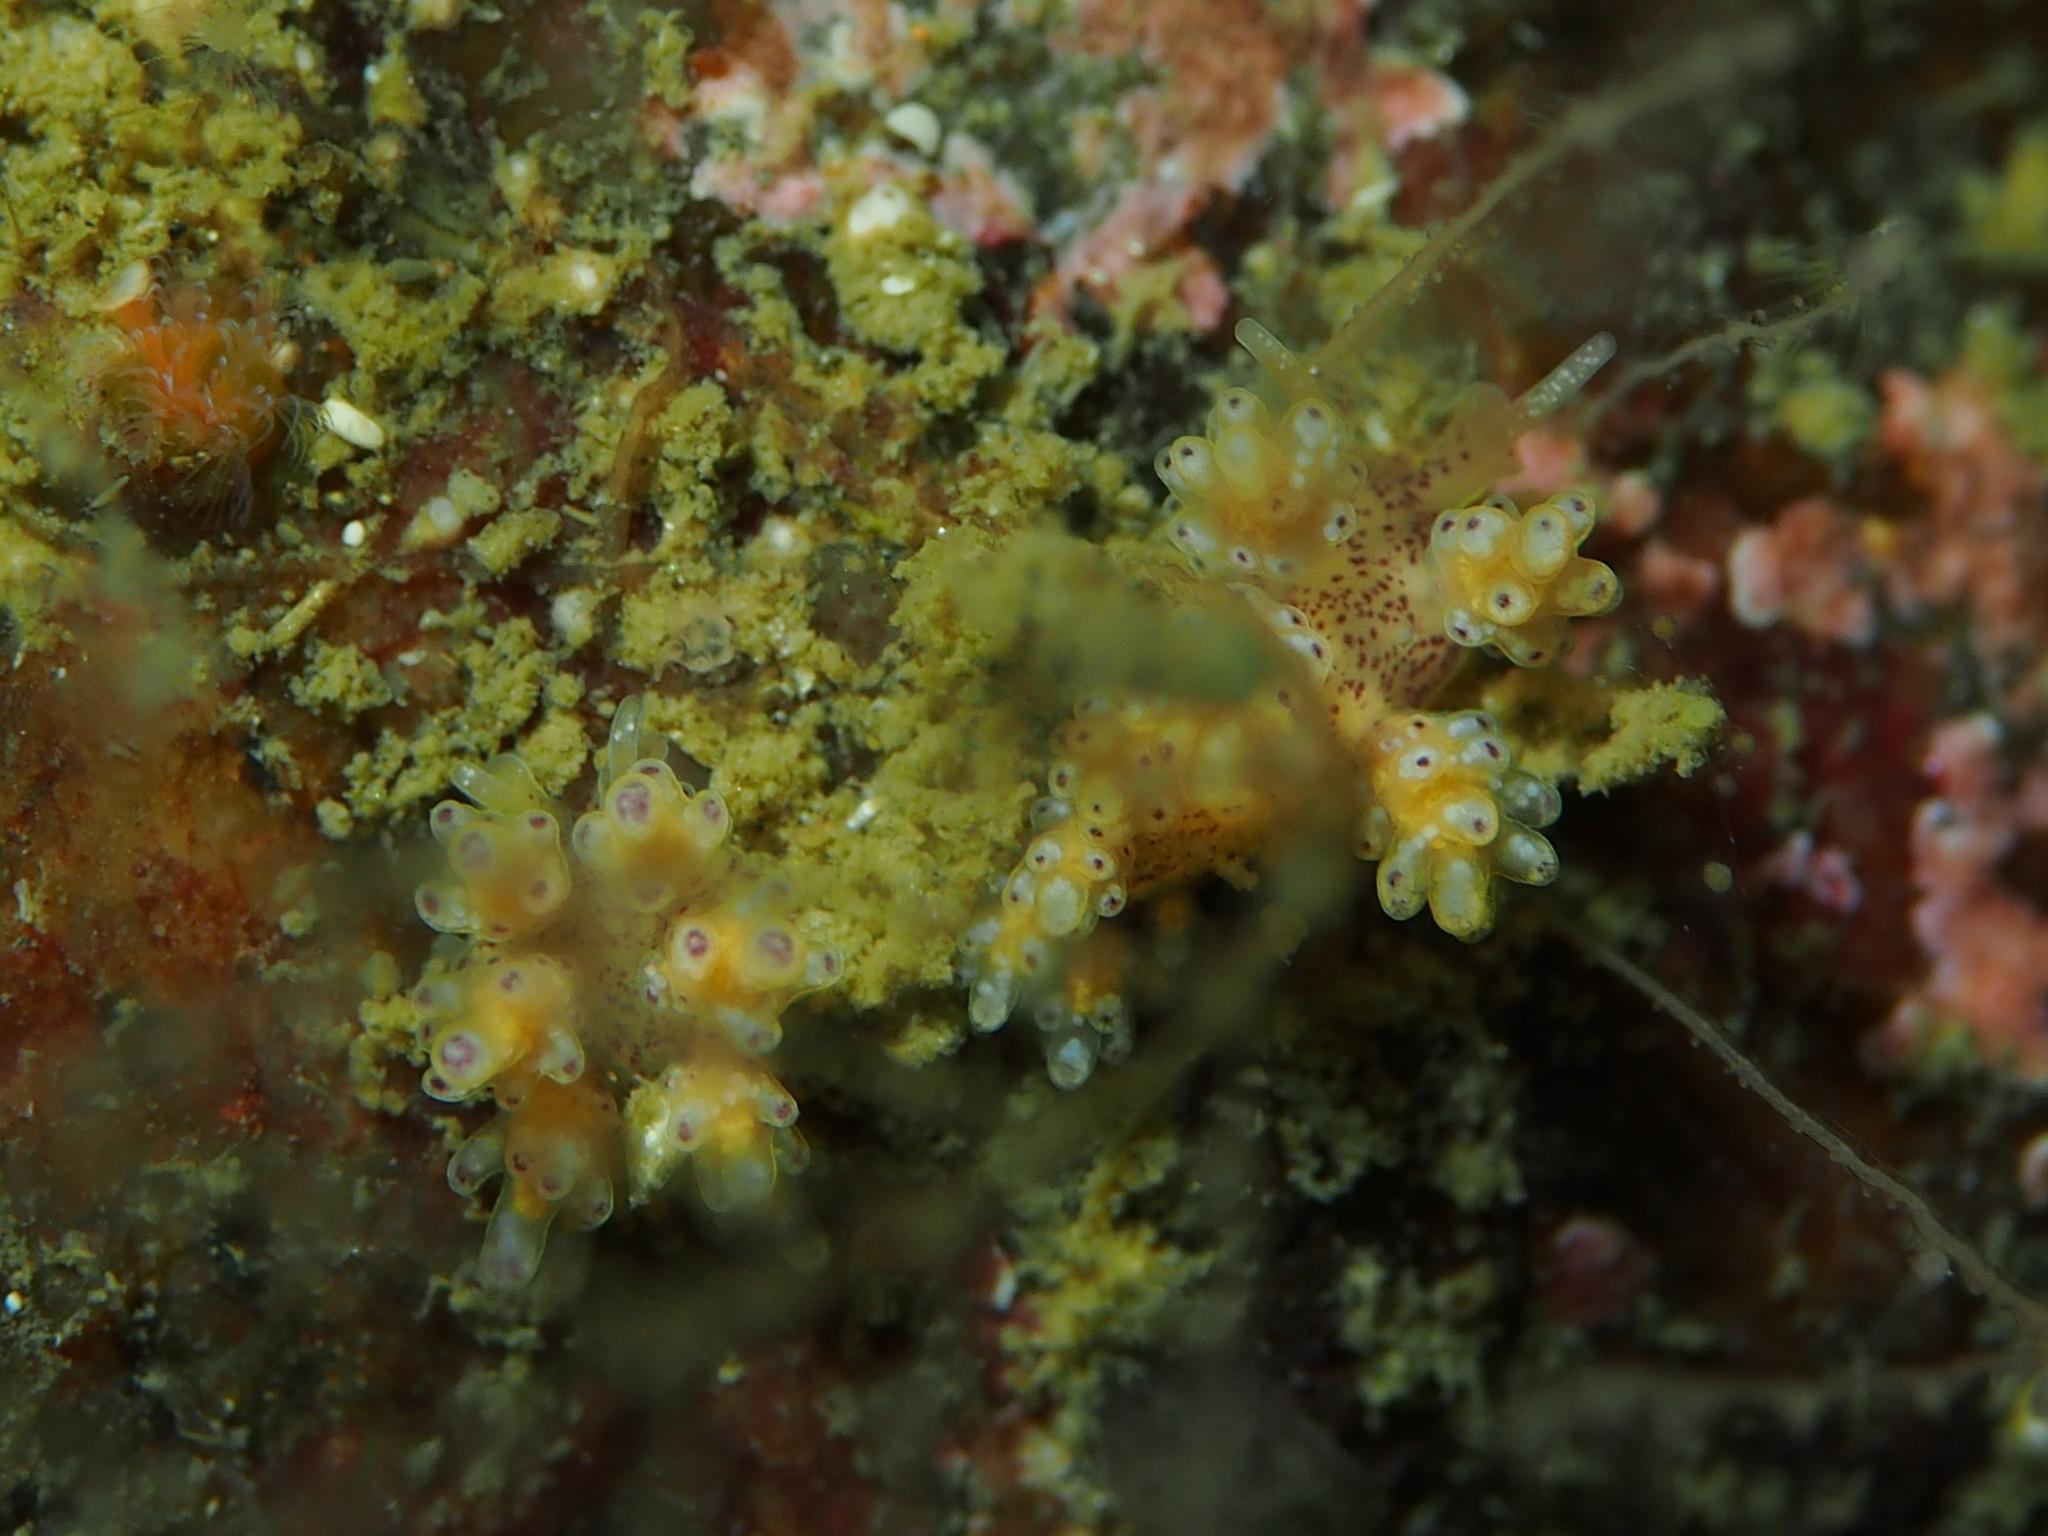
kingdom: Animalia
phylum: Mollusca
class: Gastropoda
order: Nudibranchia
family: Dotidae
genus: Doto
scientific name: Doto dunnei
